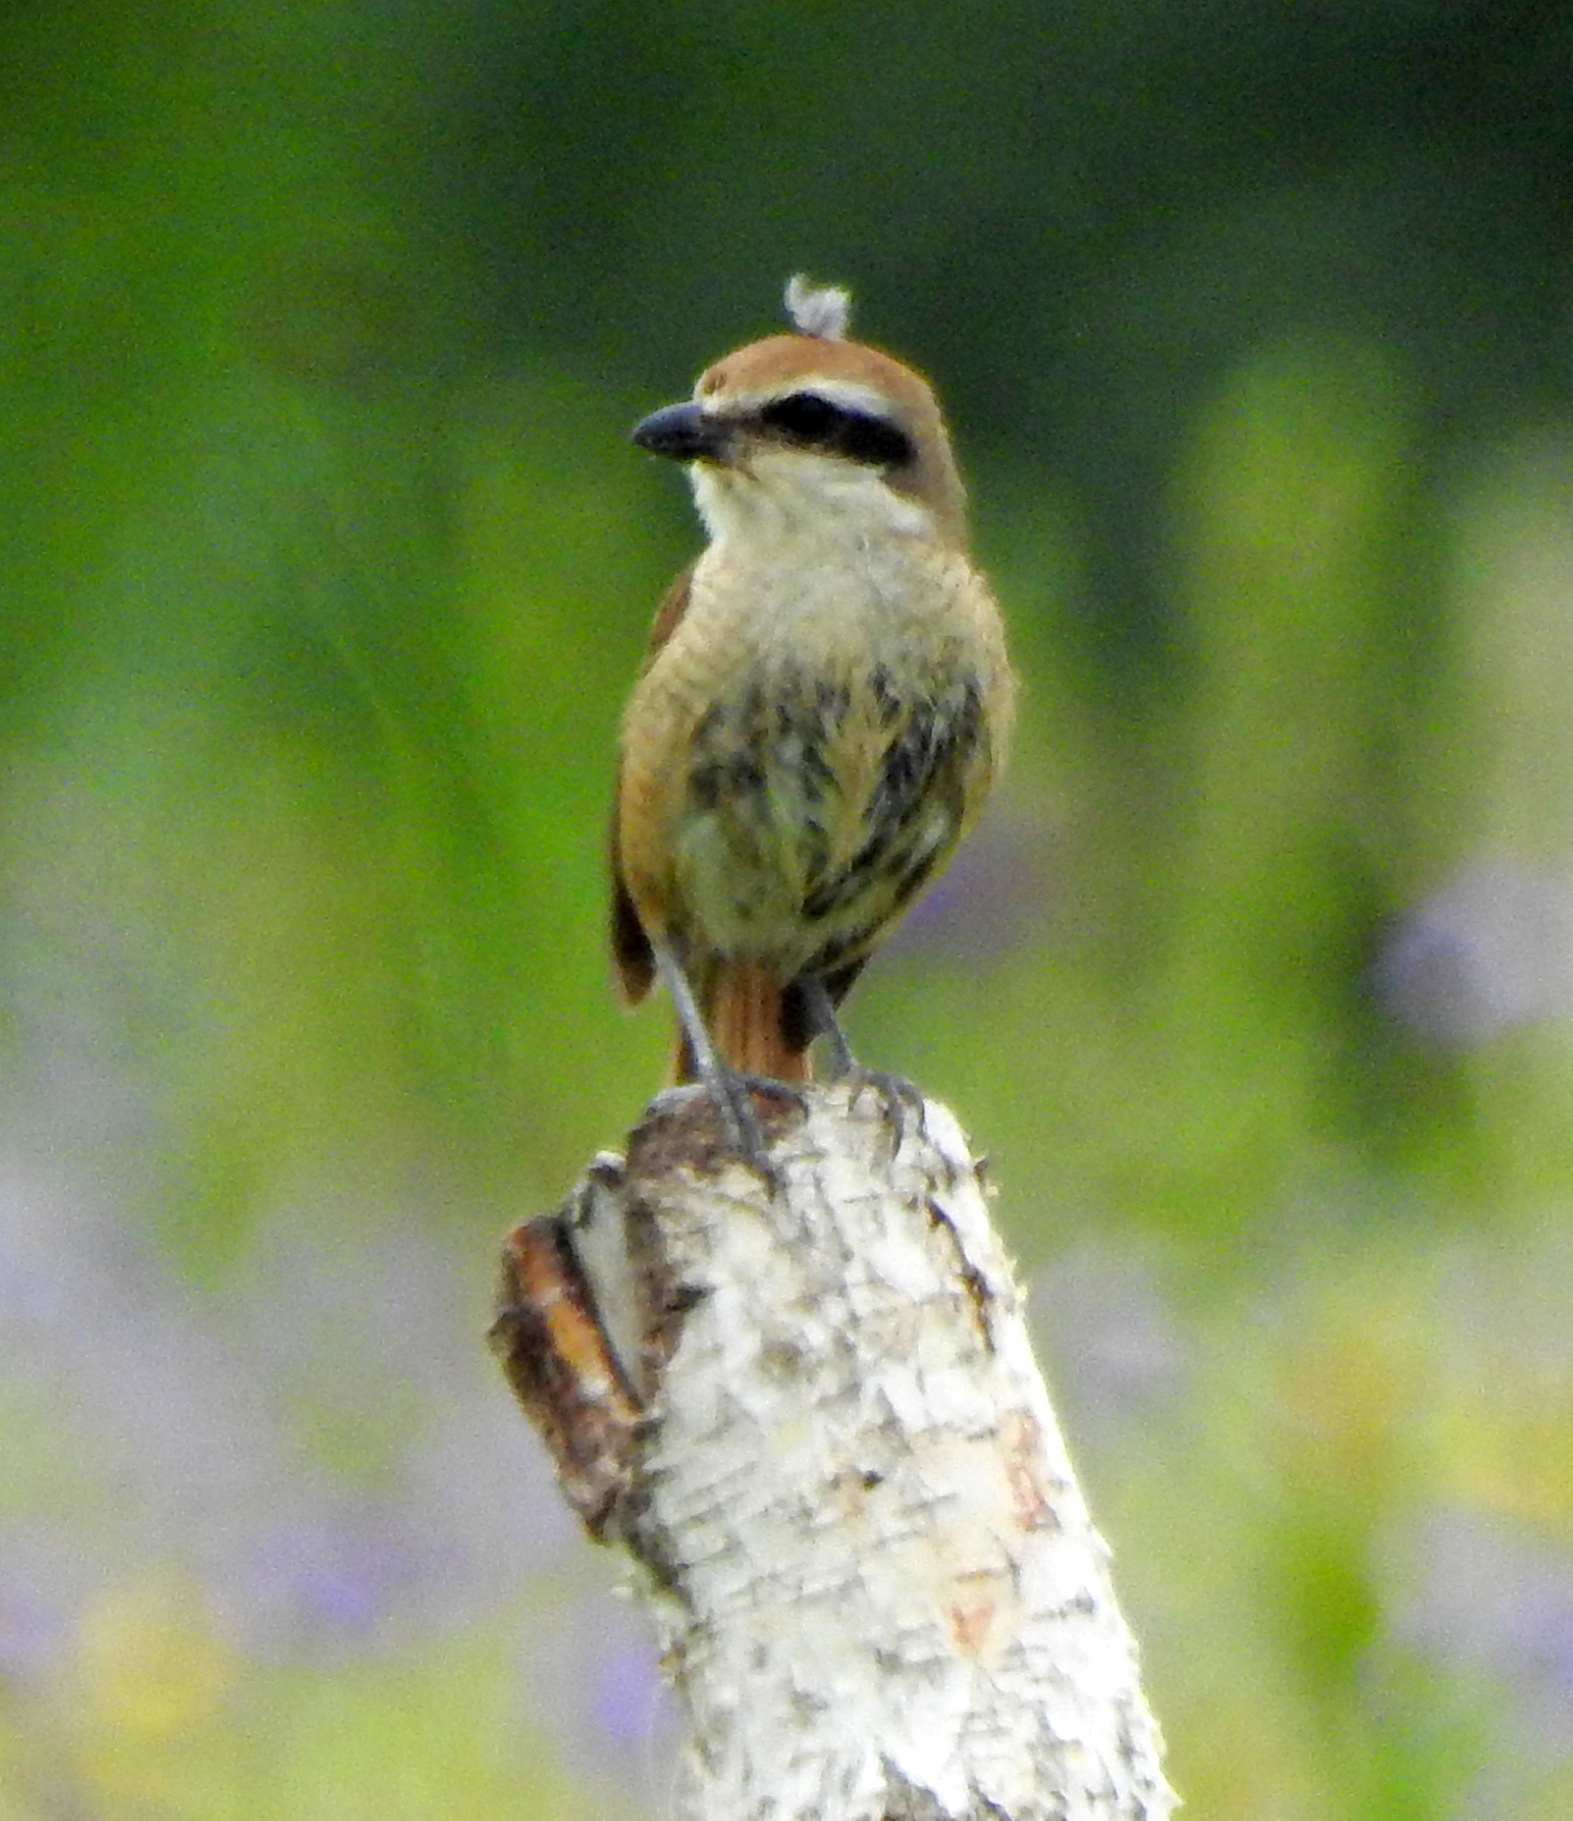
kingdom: Animalia
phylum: Chordata
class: Aves
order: Passeriformes
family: Laniidae
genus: Lanius
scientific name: Lanius cristatus
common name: Brown shrike
